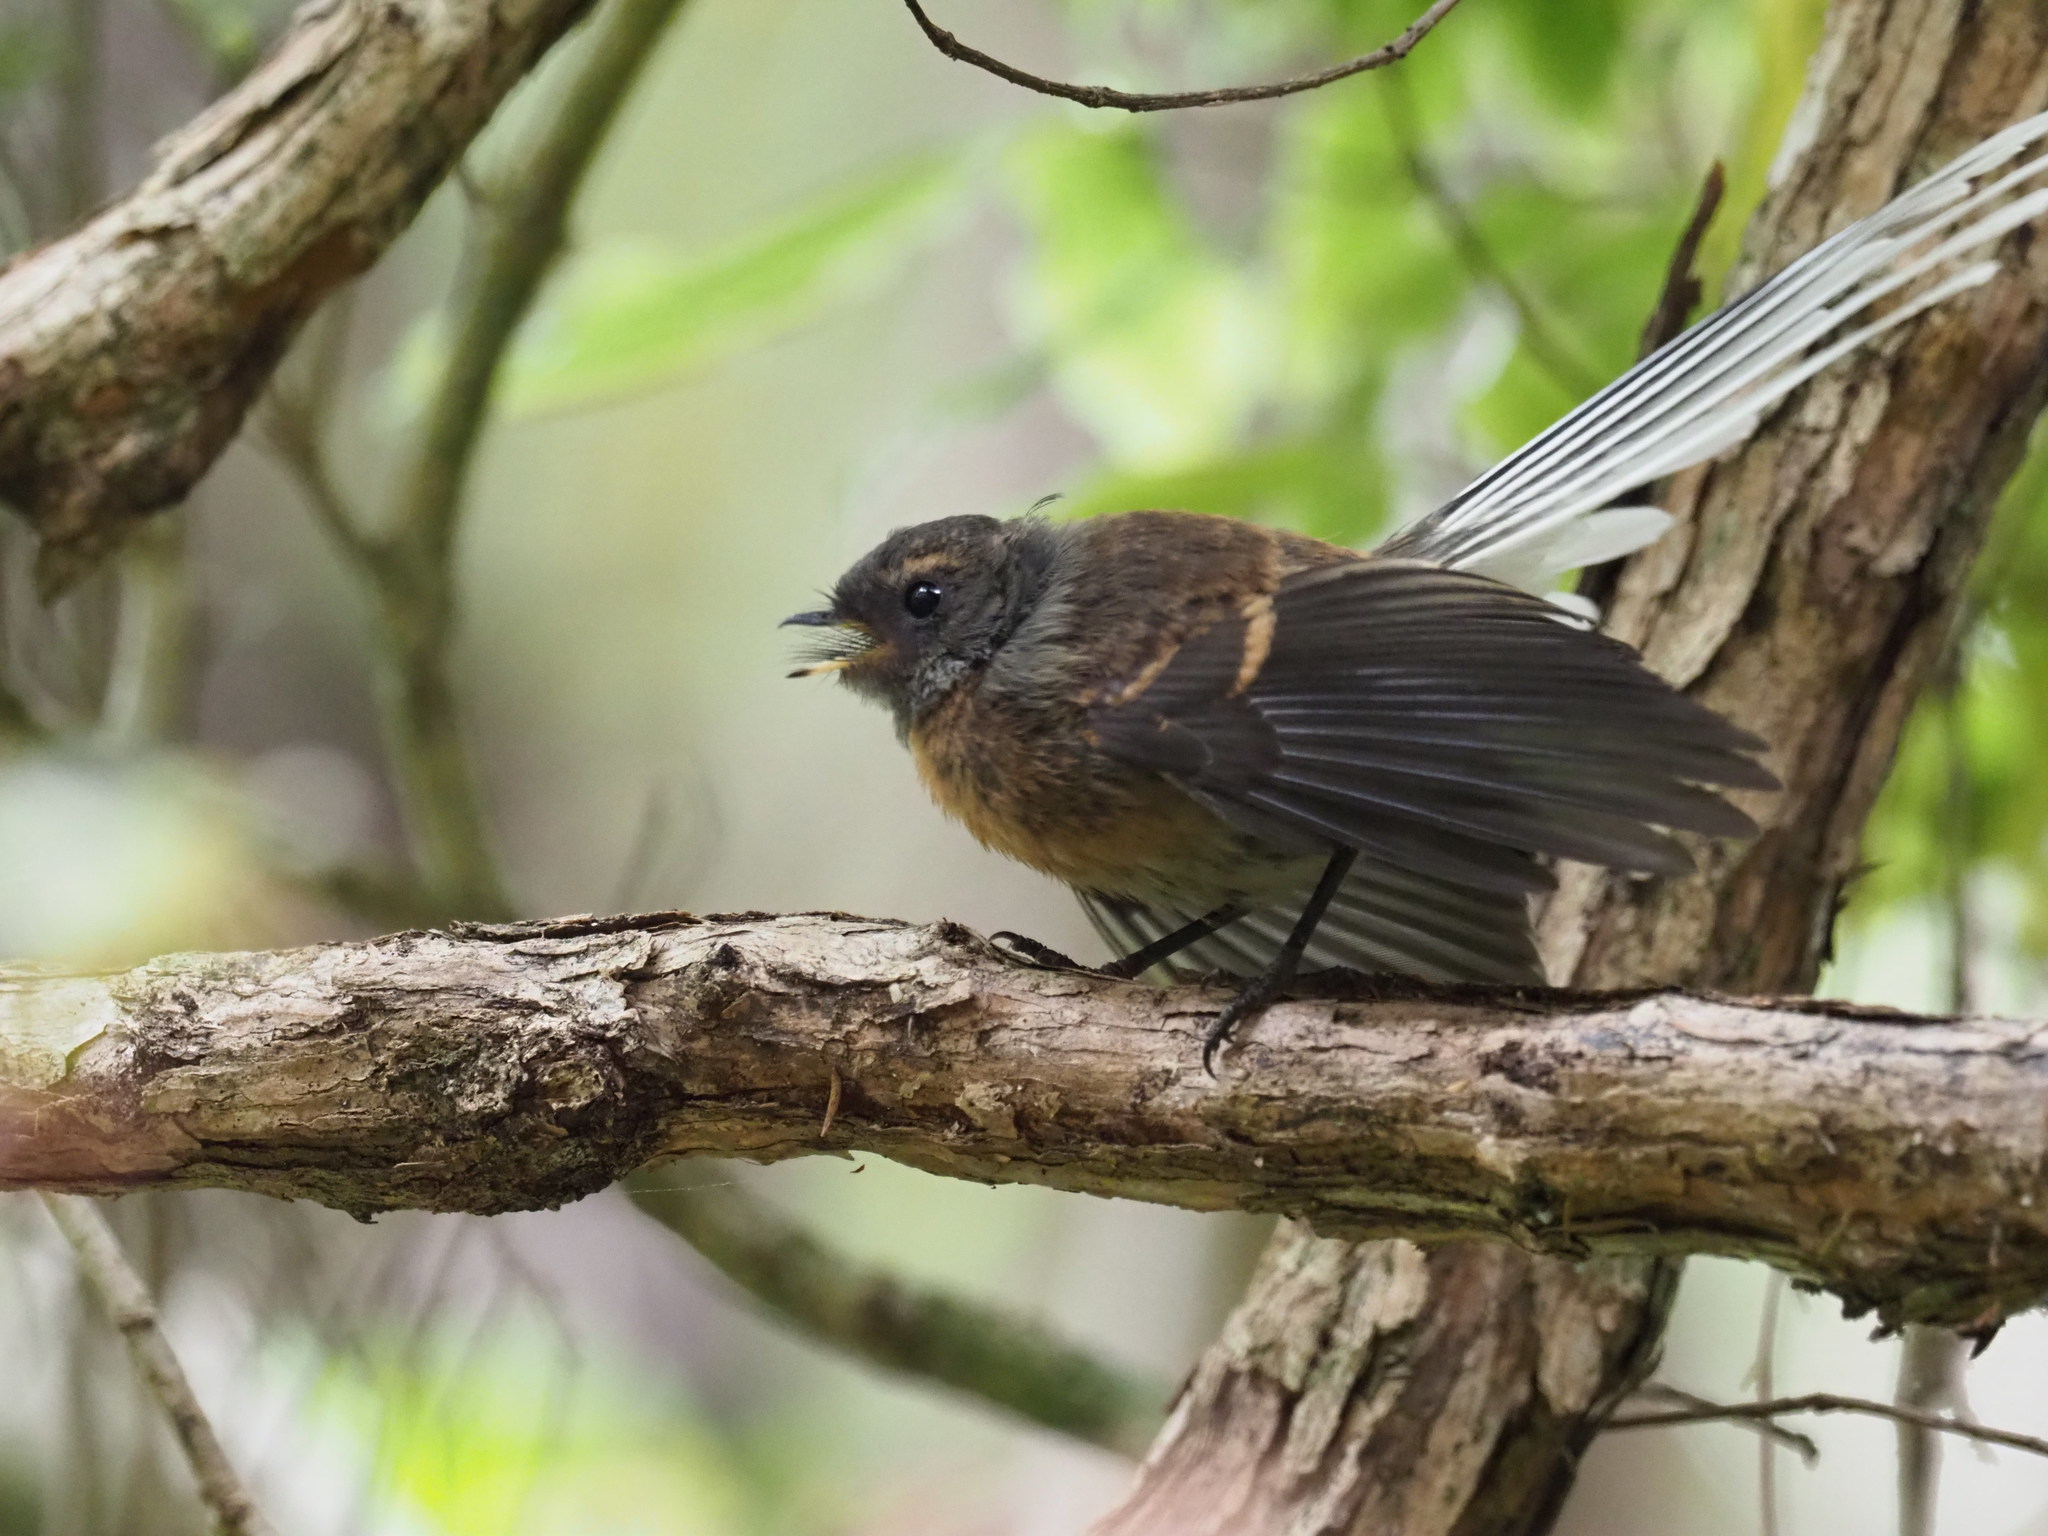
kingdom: Animalia
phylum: Chordata
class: Aves
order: Passeriformes
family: Rhipiduridae
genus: Rhipidura
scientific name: Rhipidura fuliginosa
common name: New zealand fantail
